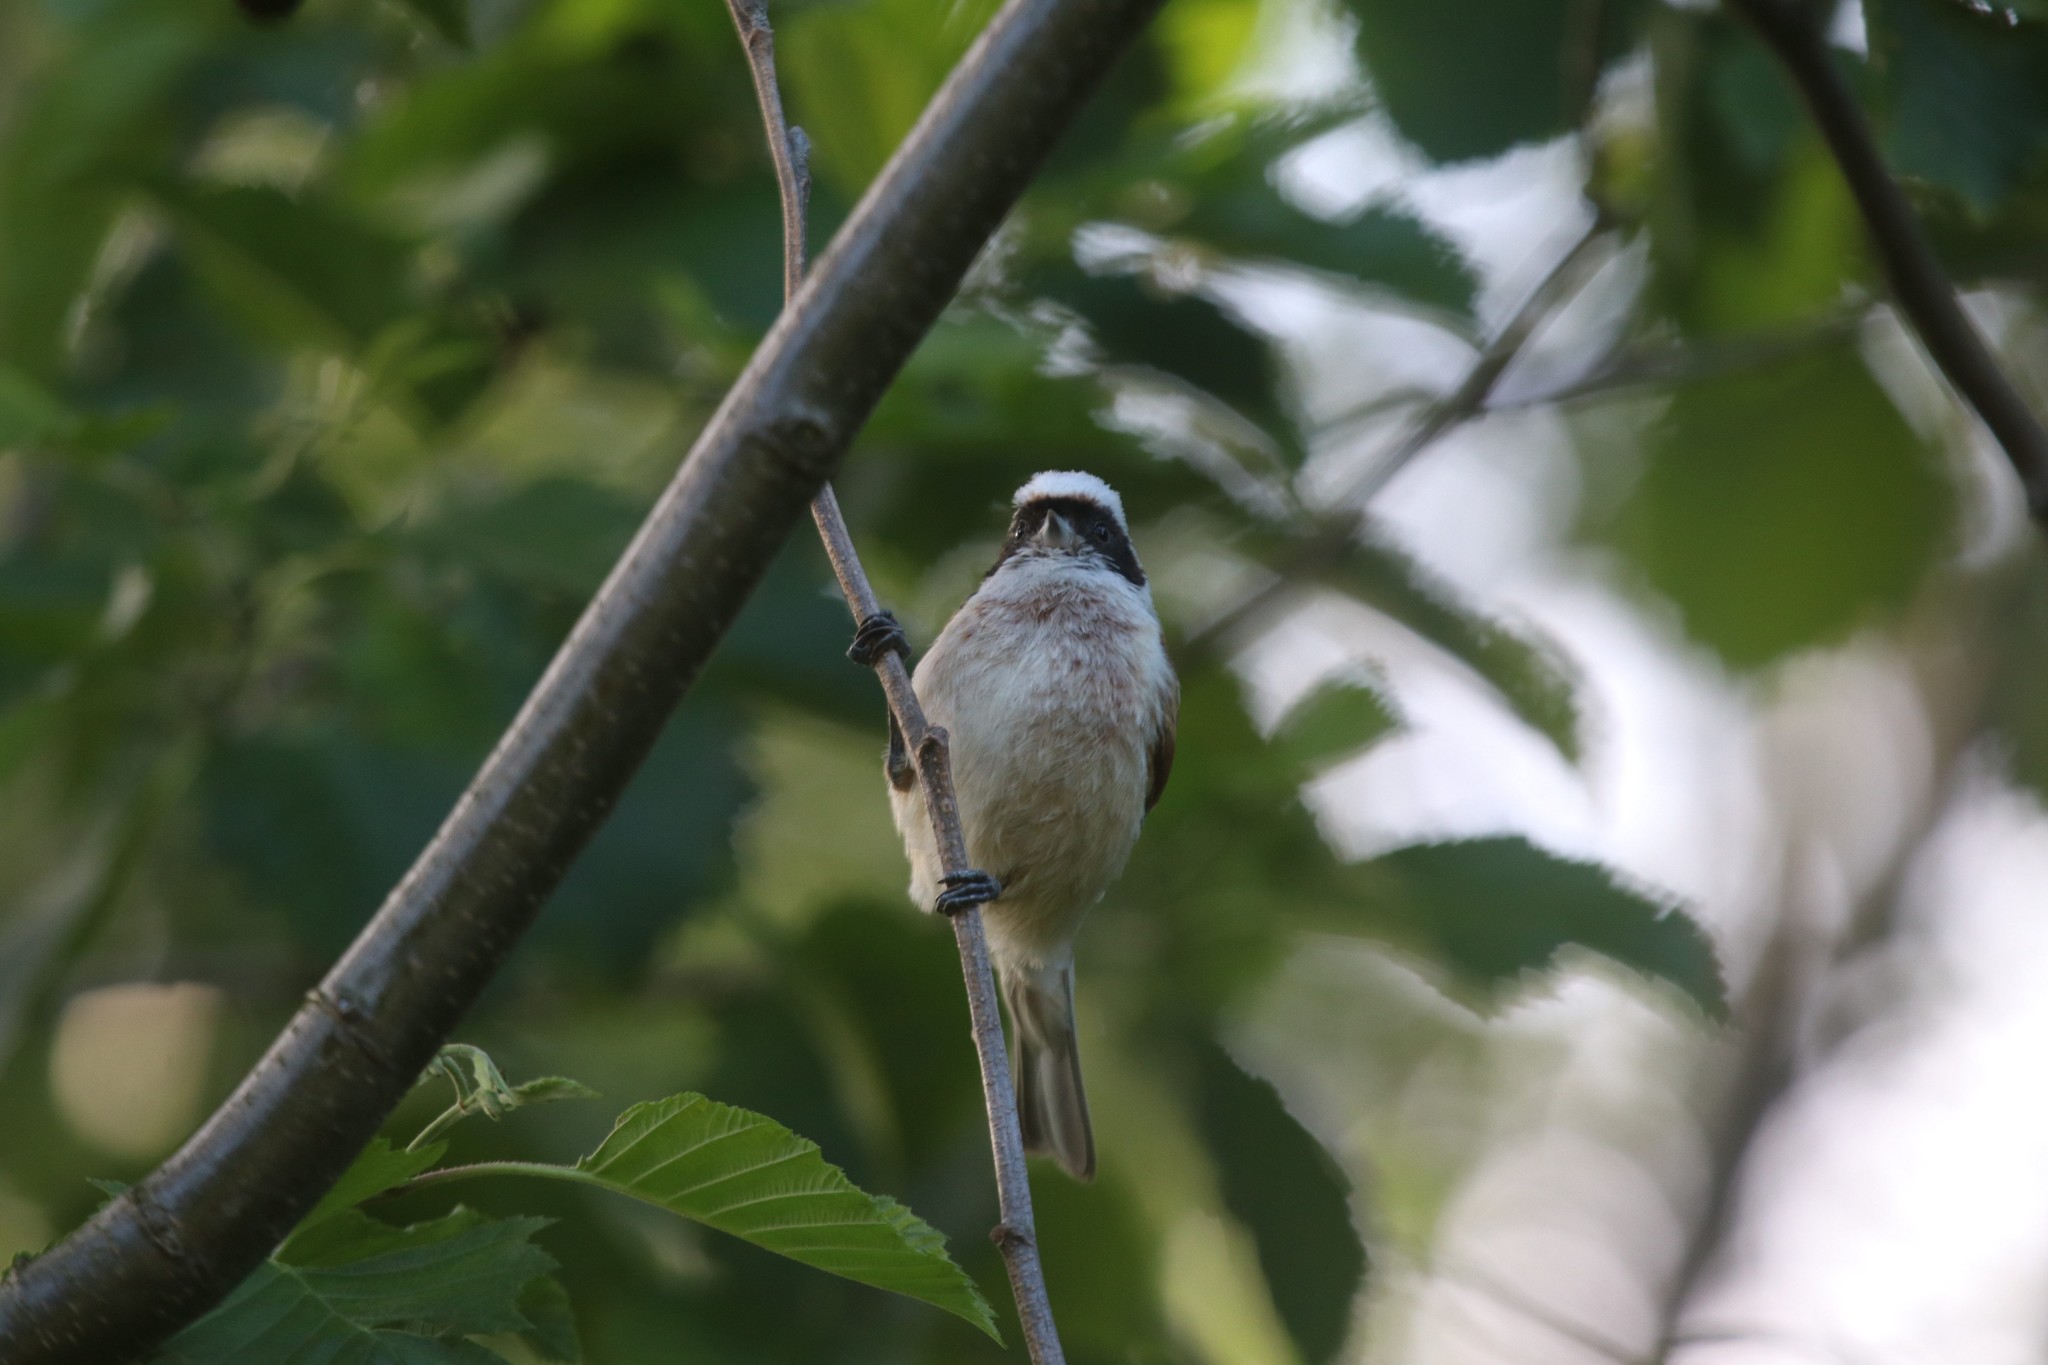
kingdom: Animalia
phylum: Chordata
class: Aves
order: Passeriformes
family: Remizidae
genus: Remiz
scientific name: Remiz pendulinus
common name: Eurasian penduline tit
